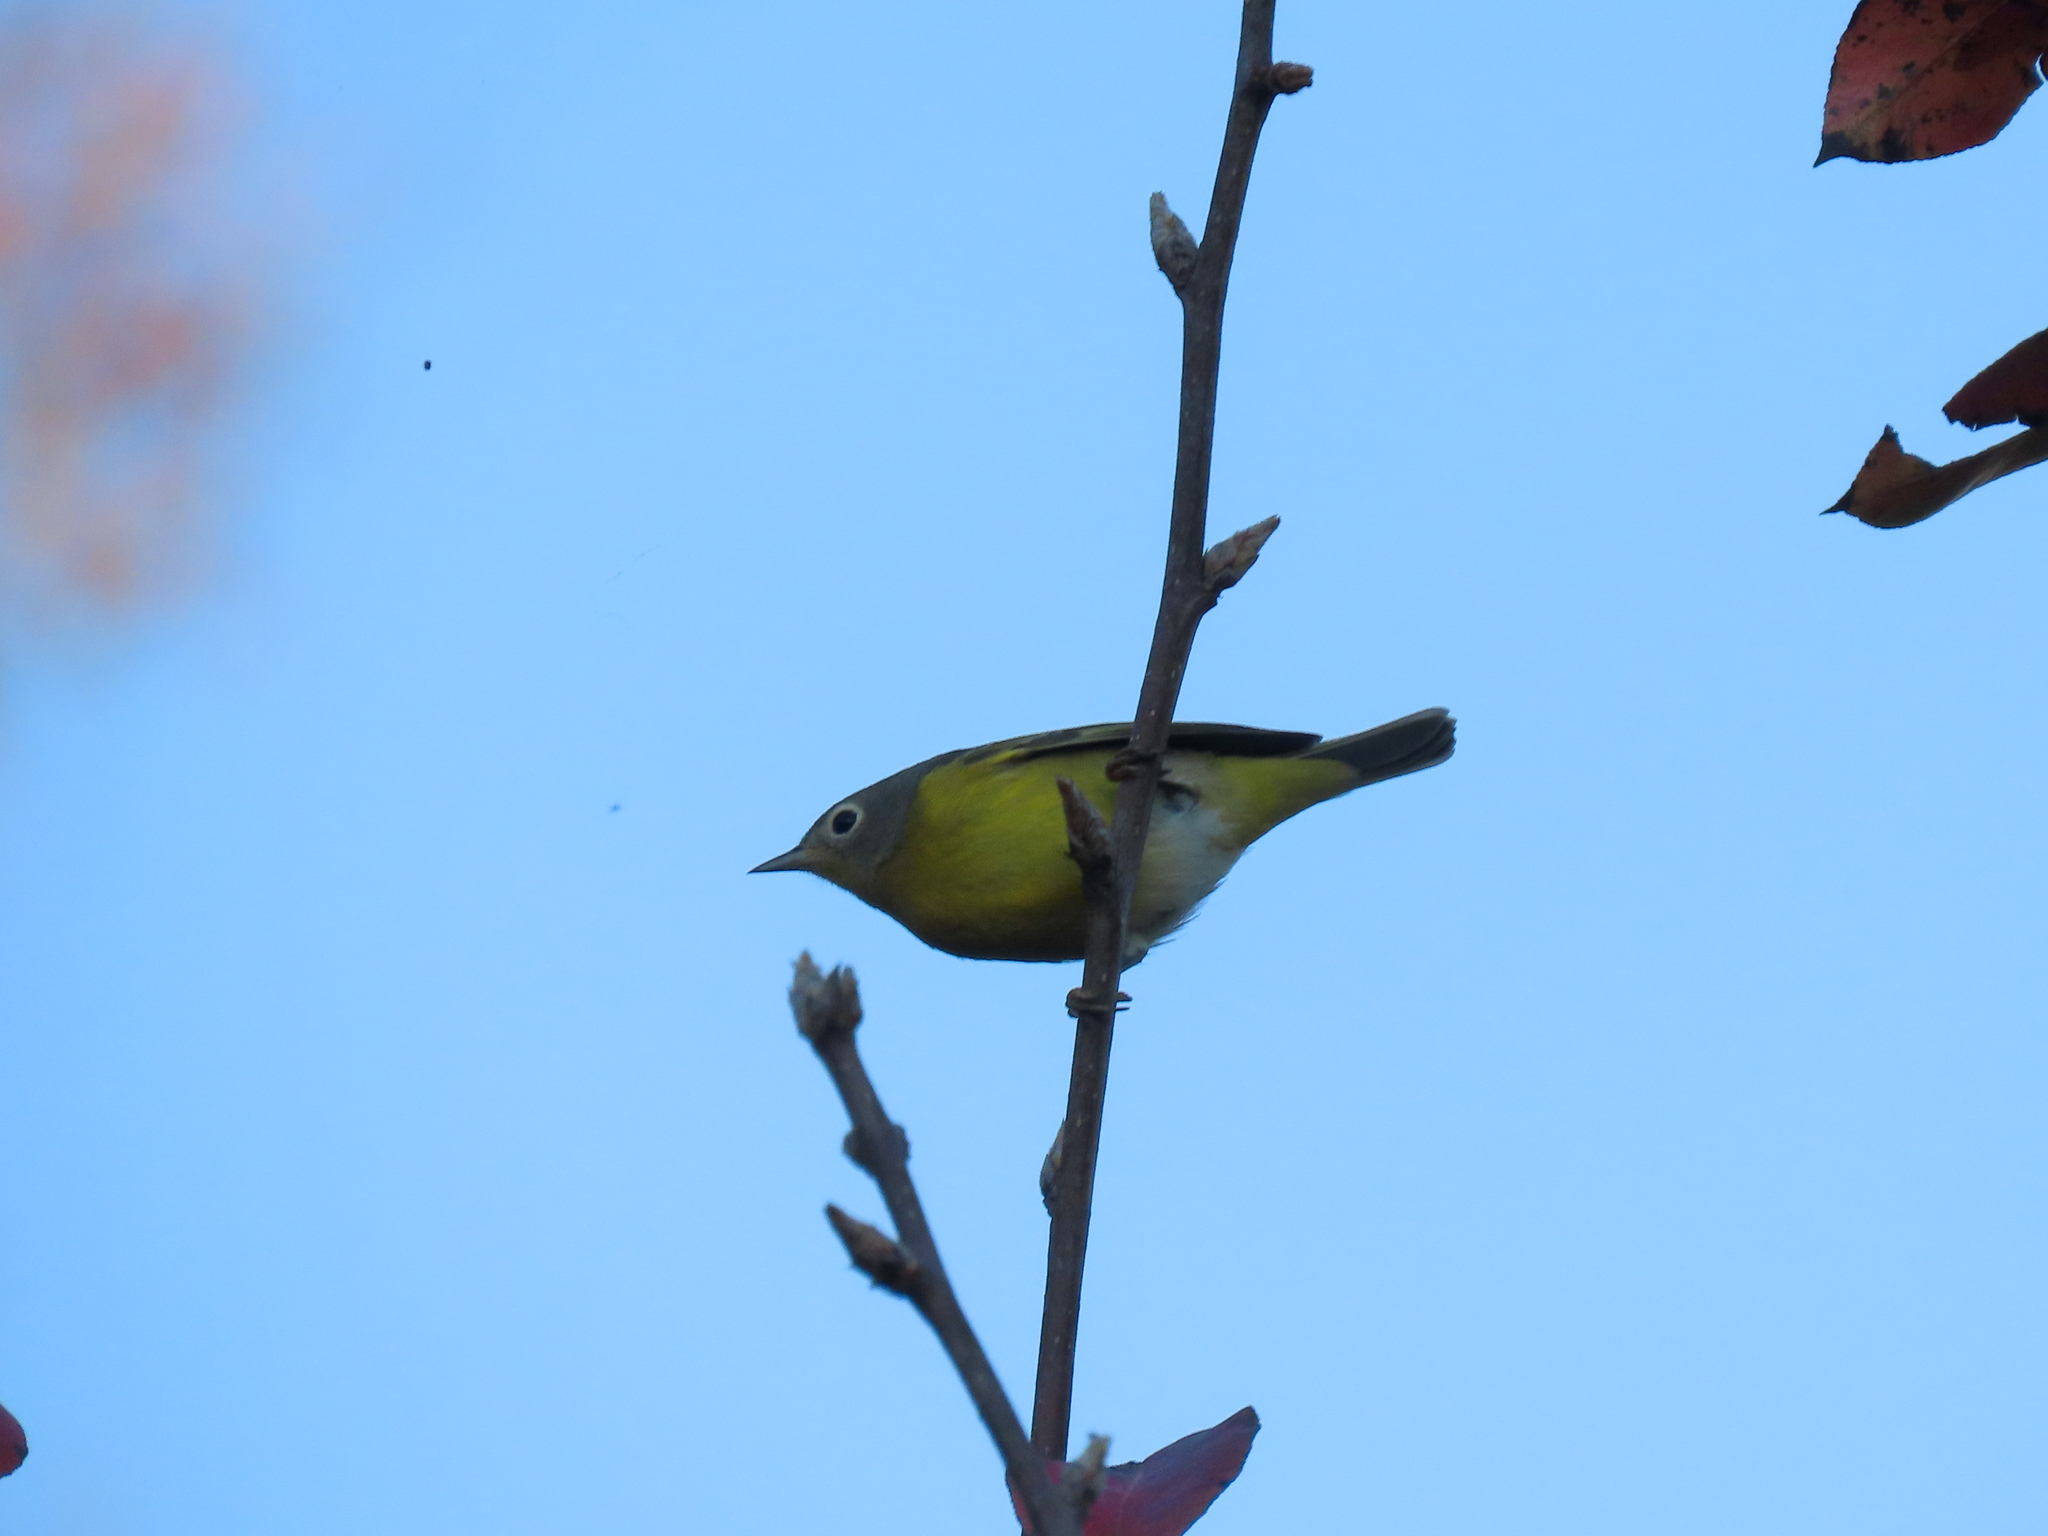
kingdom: Animalia
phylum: Chordata
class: Aves
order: Passeriformes
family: Parulidae
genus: Leiothlypis
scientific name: Leiothlypis ruficapilla
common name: Nashville warbler
